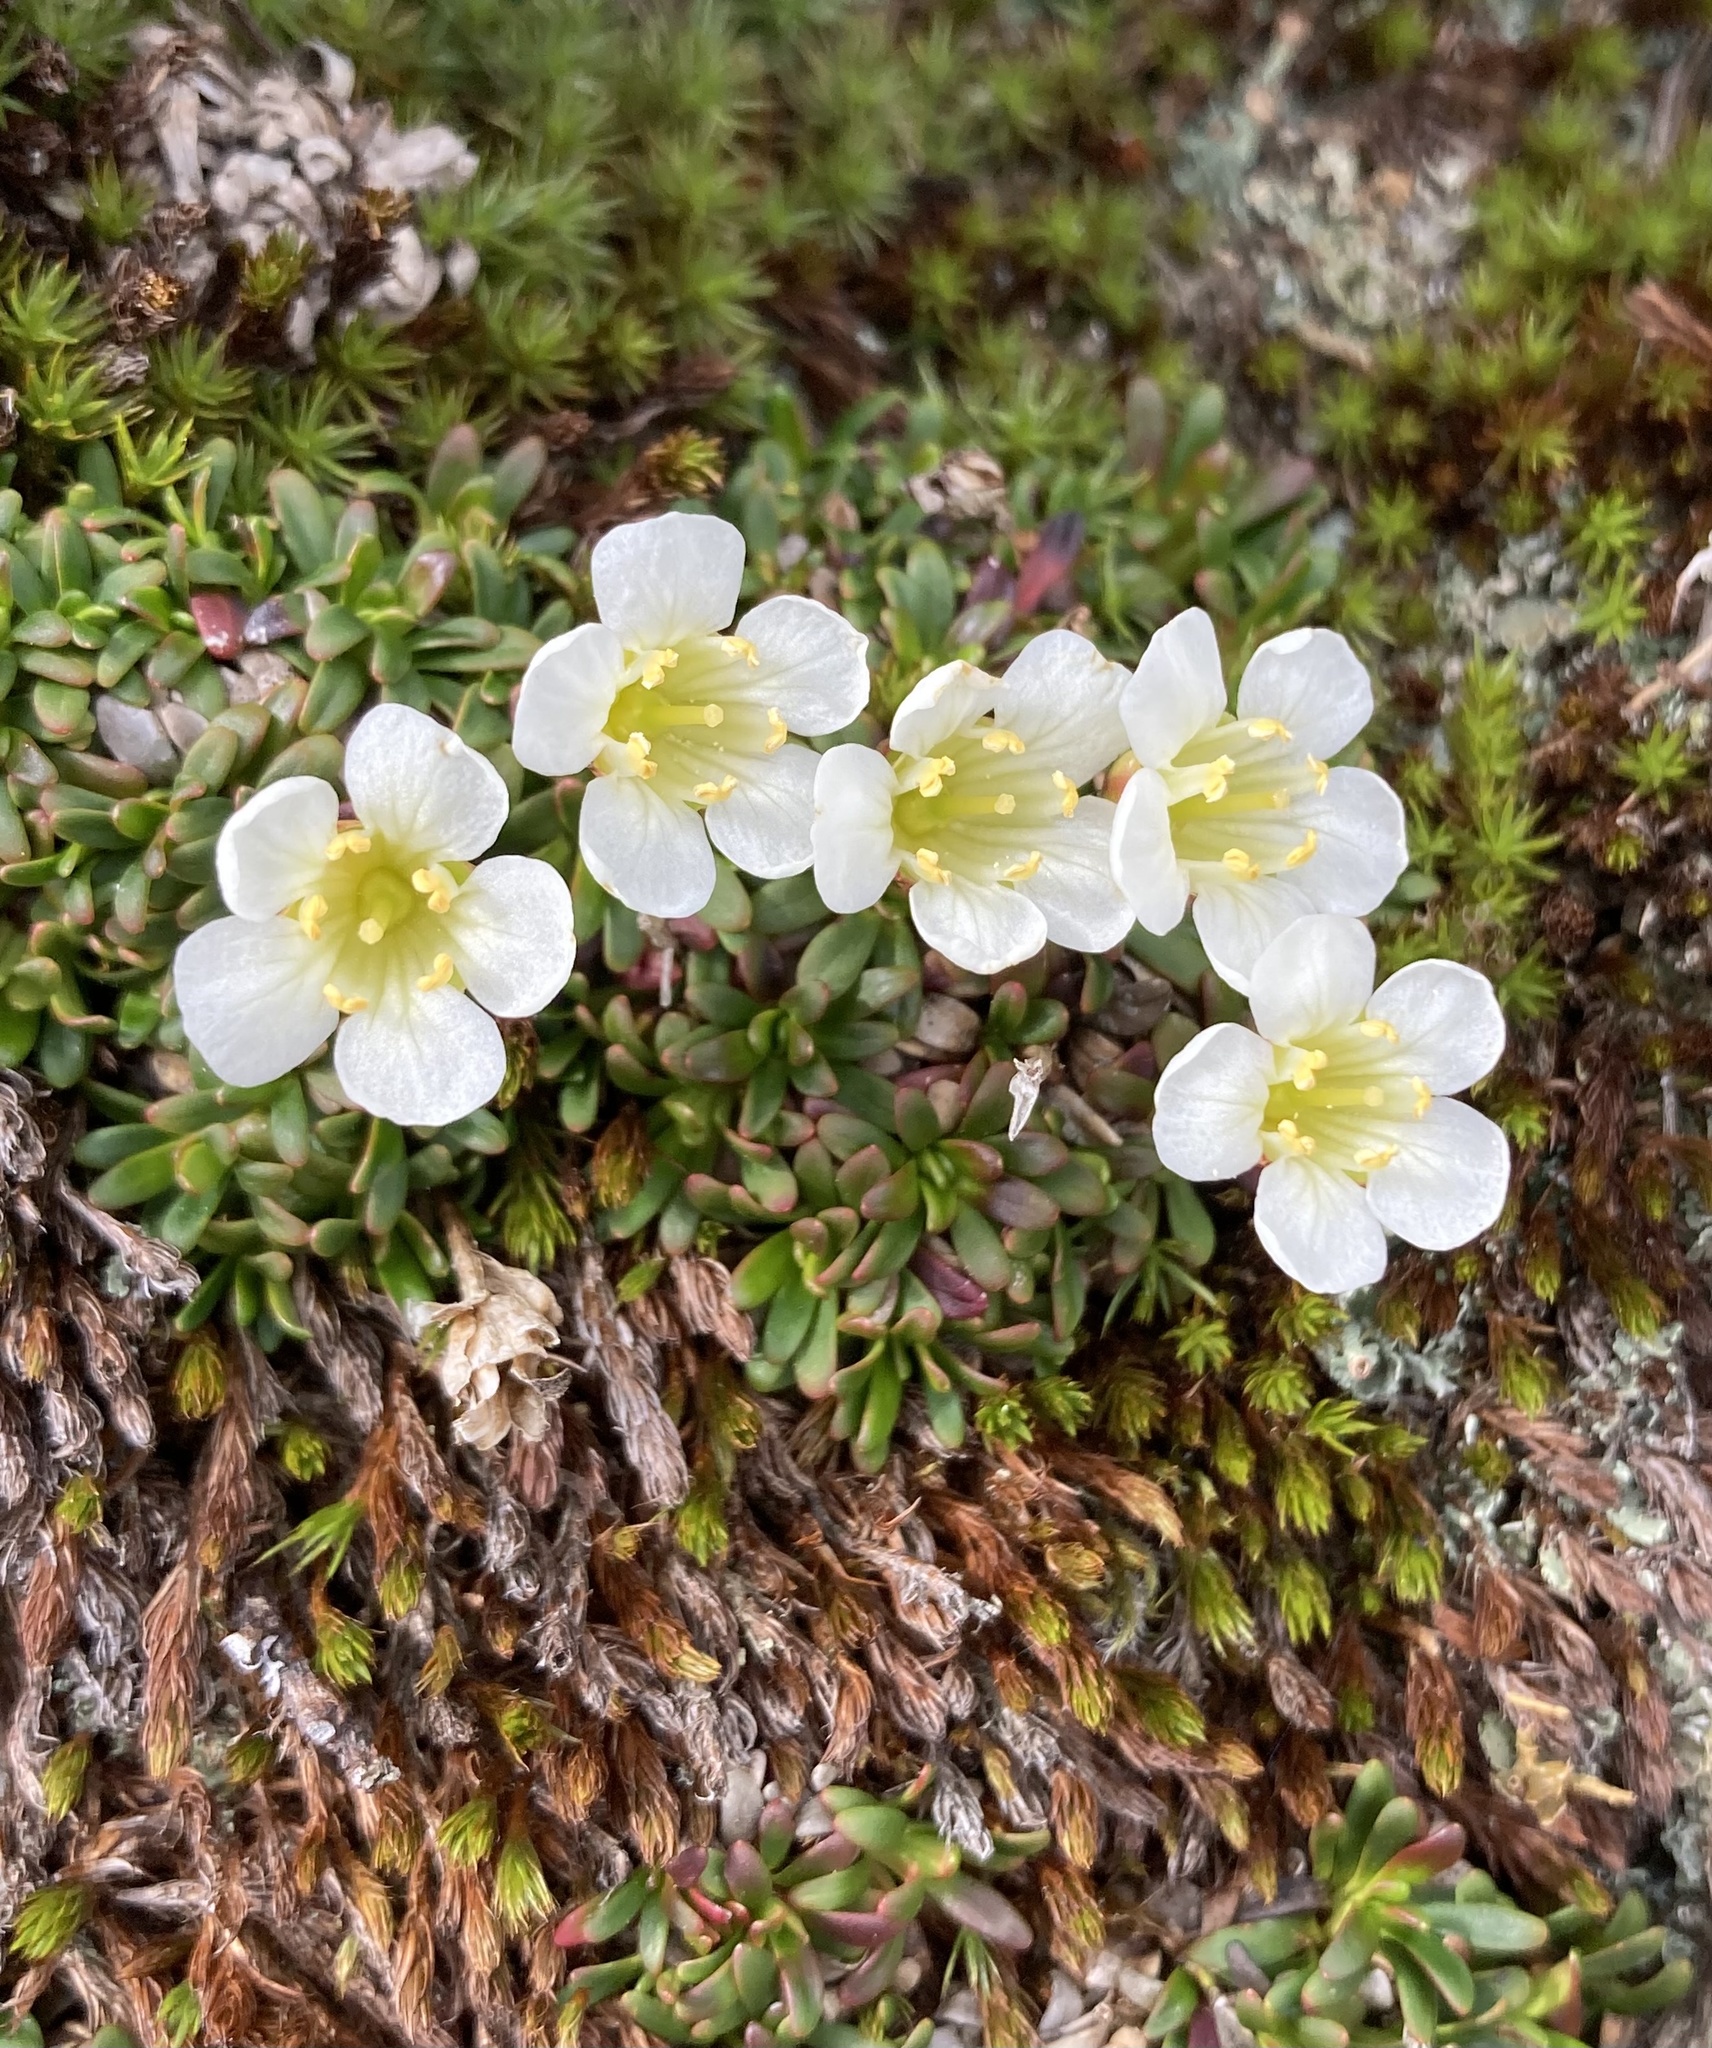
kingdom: Plantae
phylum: Tracheophyta
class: Magnoliopsida
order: Ericales
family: Diapensiaceae
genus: Diapensia
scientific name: Diapensia lapponica
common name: Diapensia
